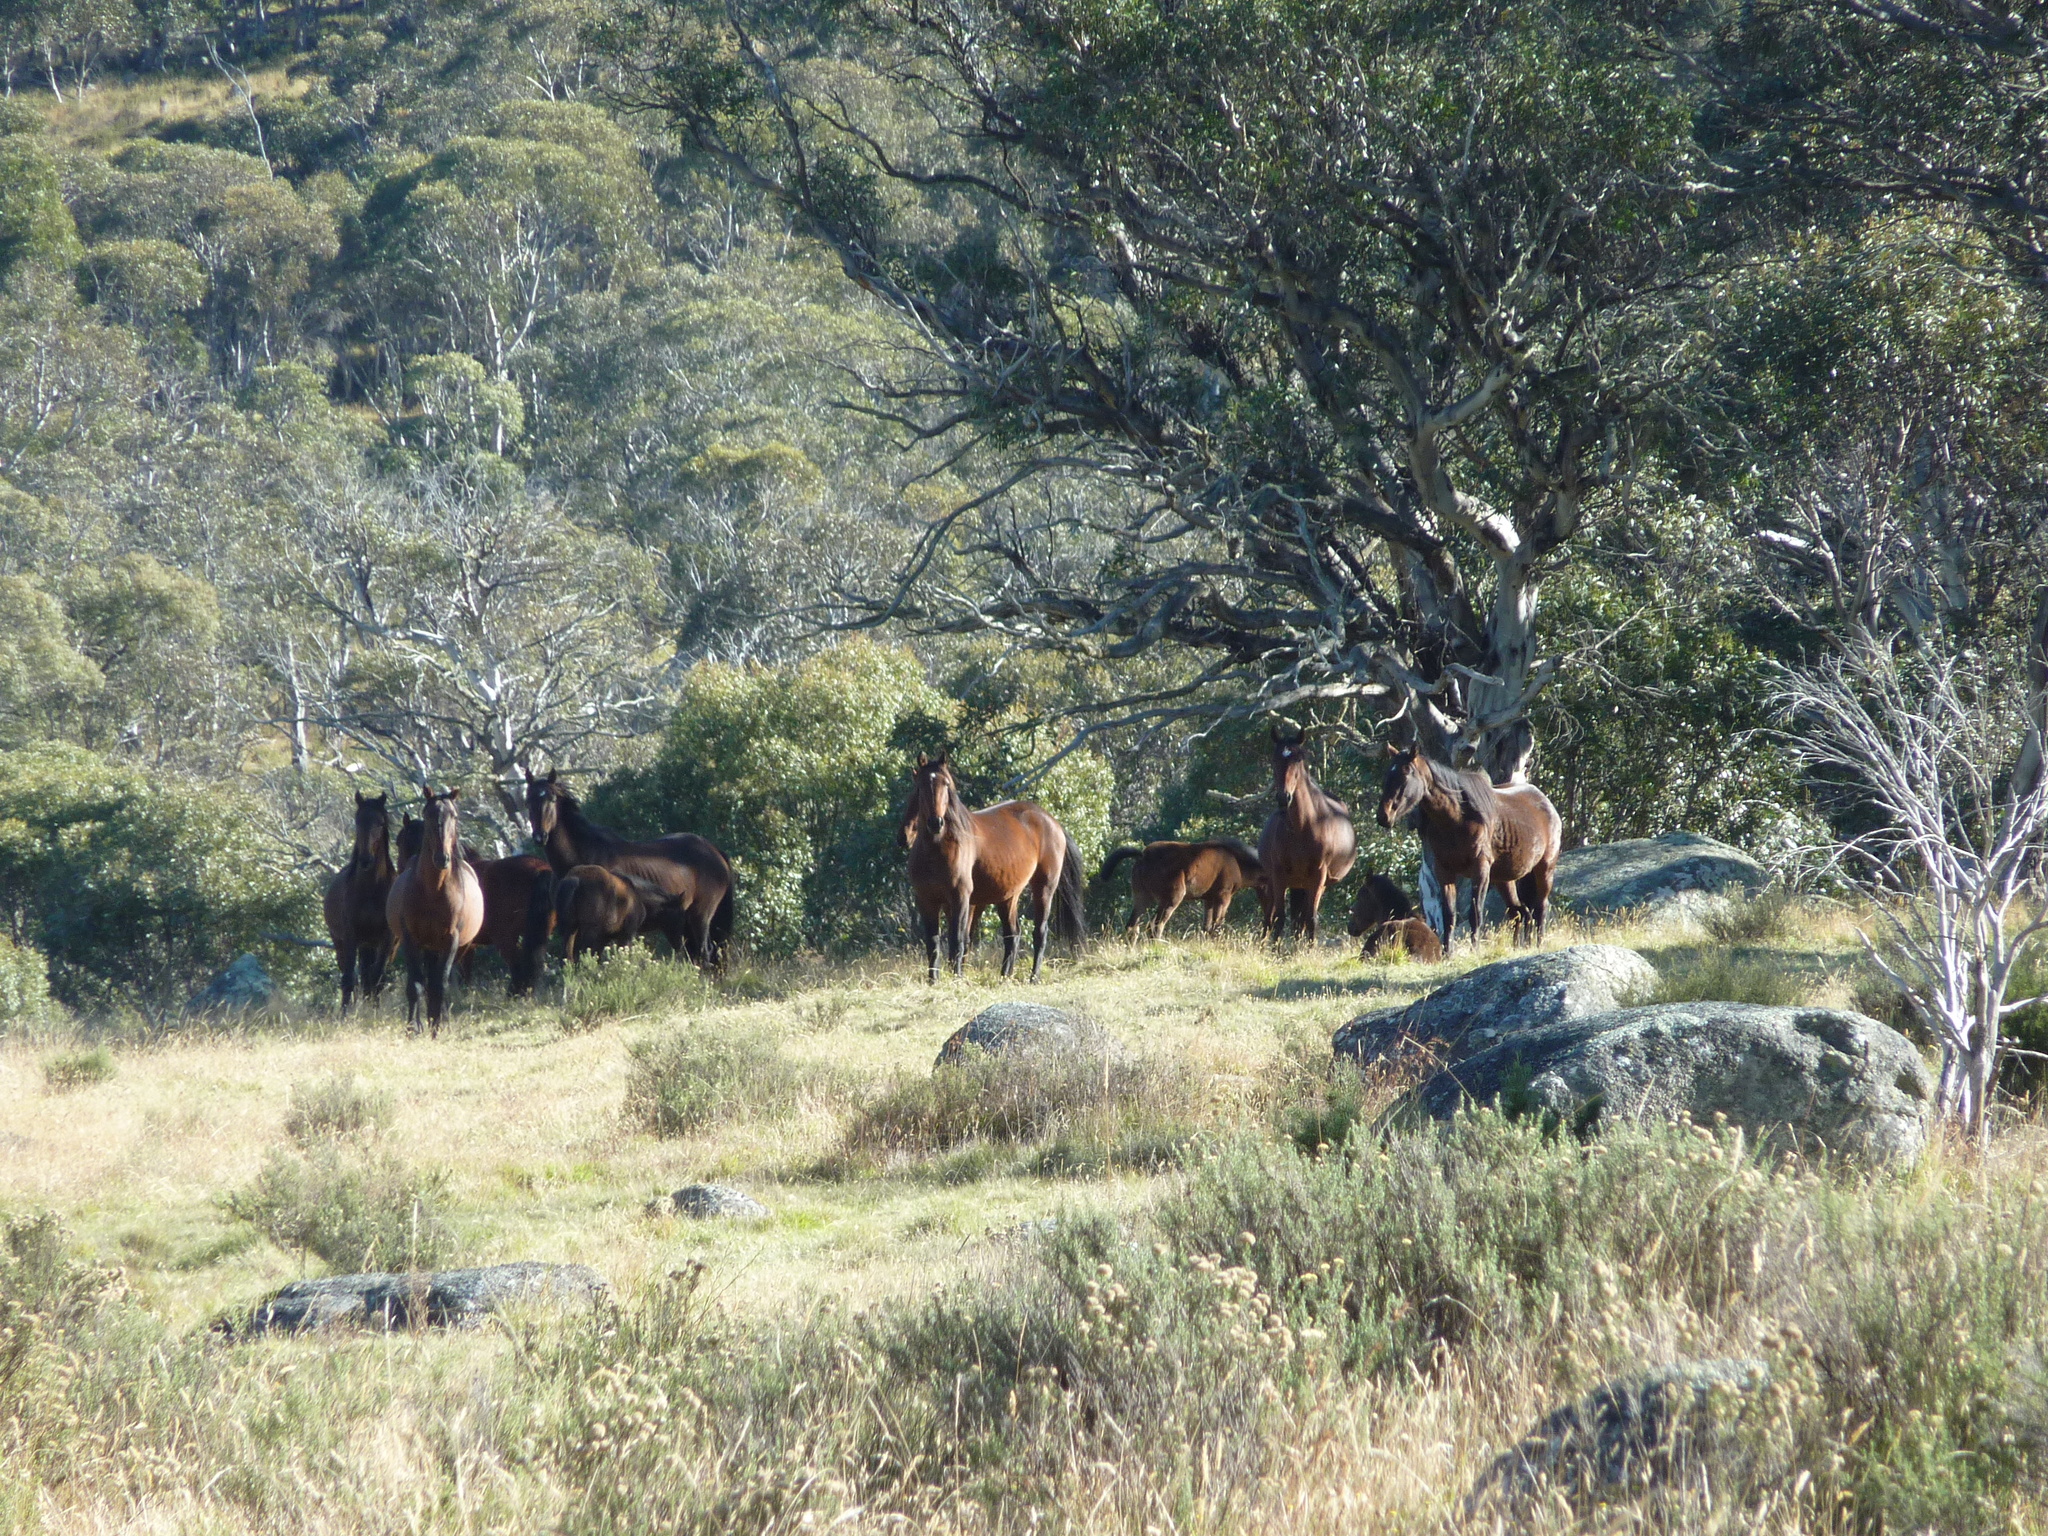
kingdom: Animalia
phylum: Chordata
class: Mammalia
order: Perissodactyla
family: Equidae
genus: Equus
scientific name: Equus caballus
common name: Horse
